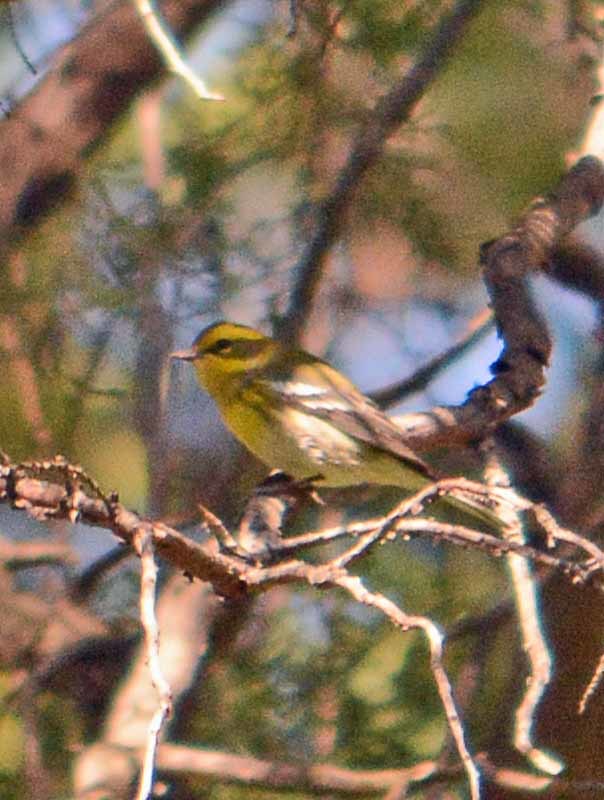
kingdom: Animalia
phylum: Chordata
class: Aves
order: Passeriformes
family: Parulidae
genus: Setophaga
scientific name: Setophaga townsendi
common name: Townsend's warbler
